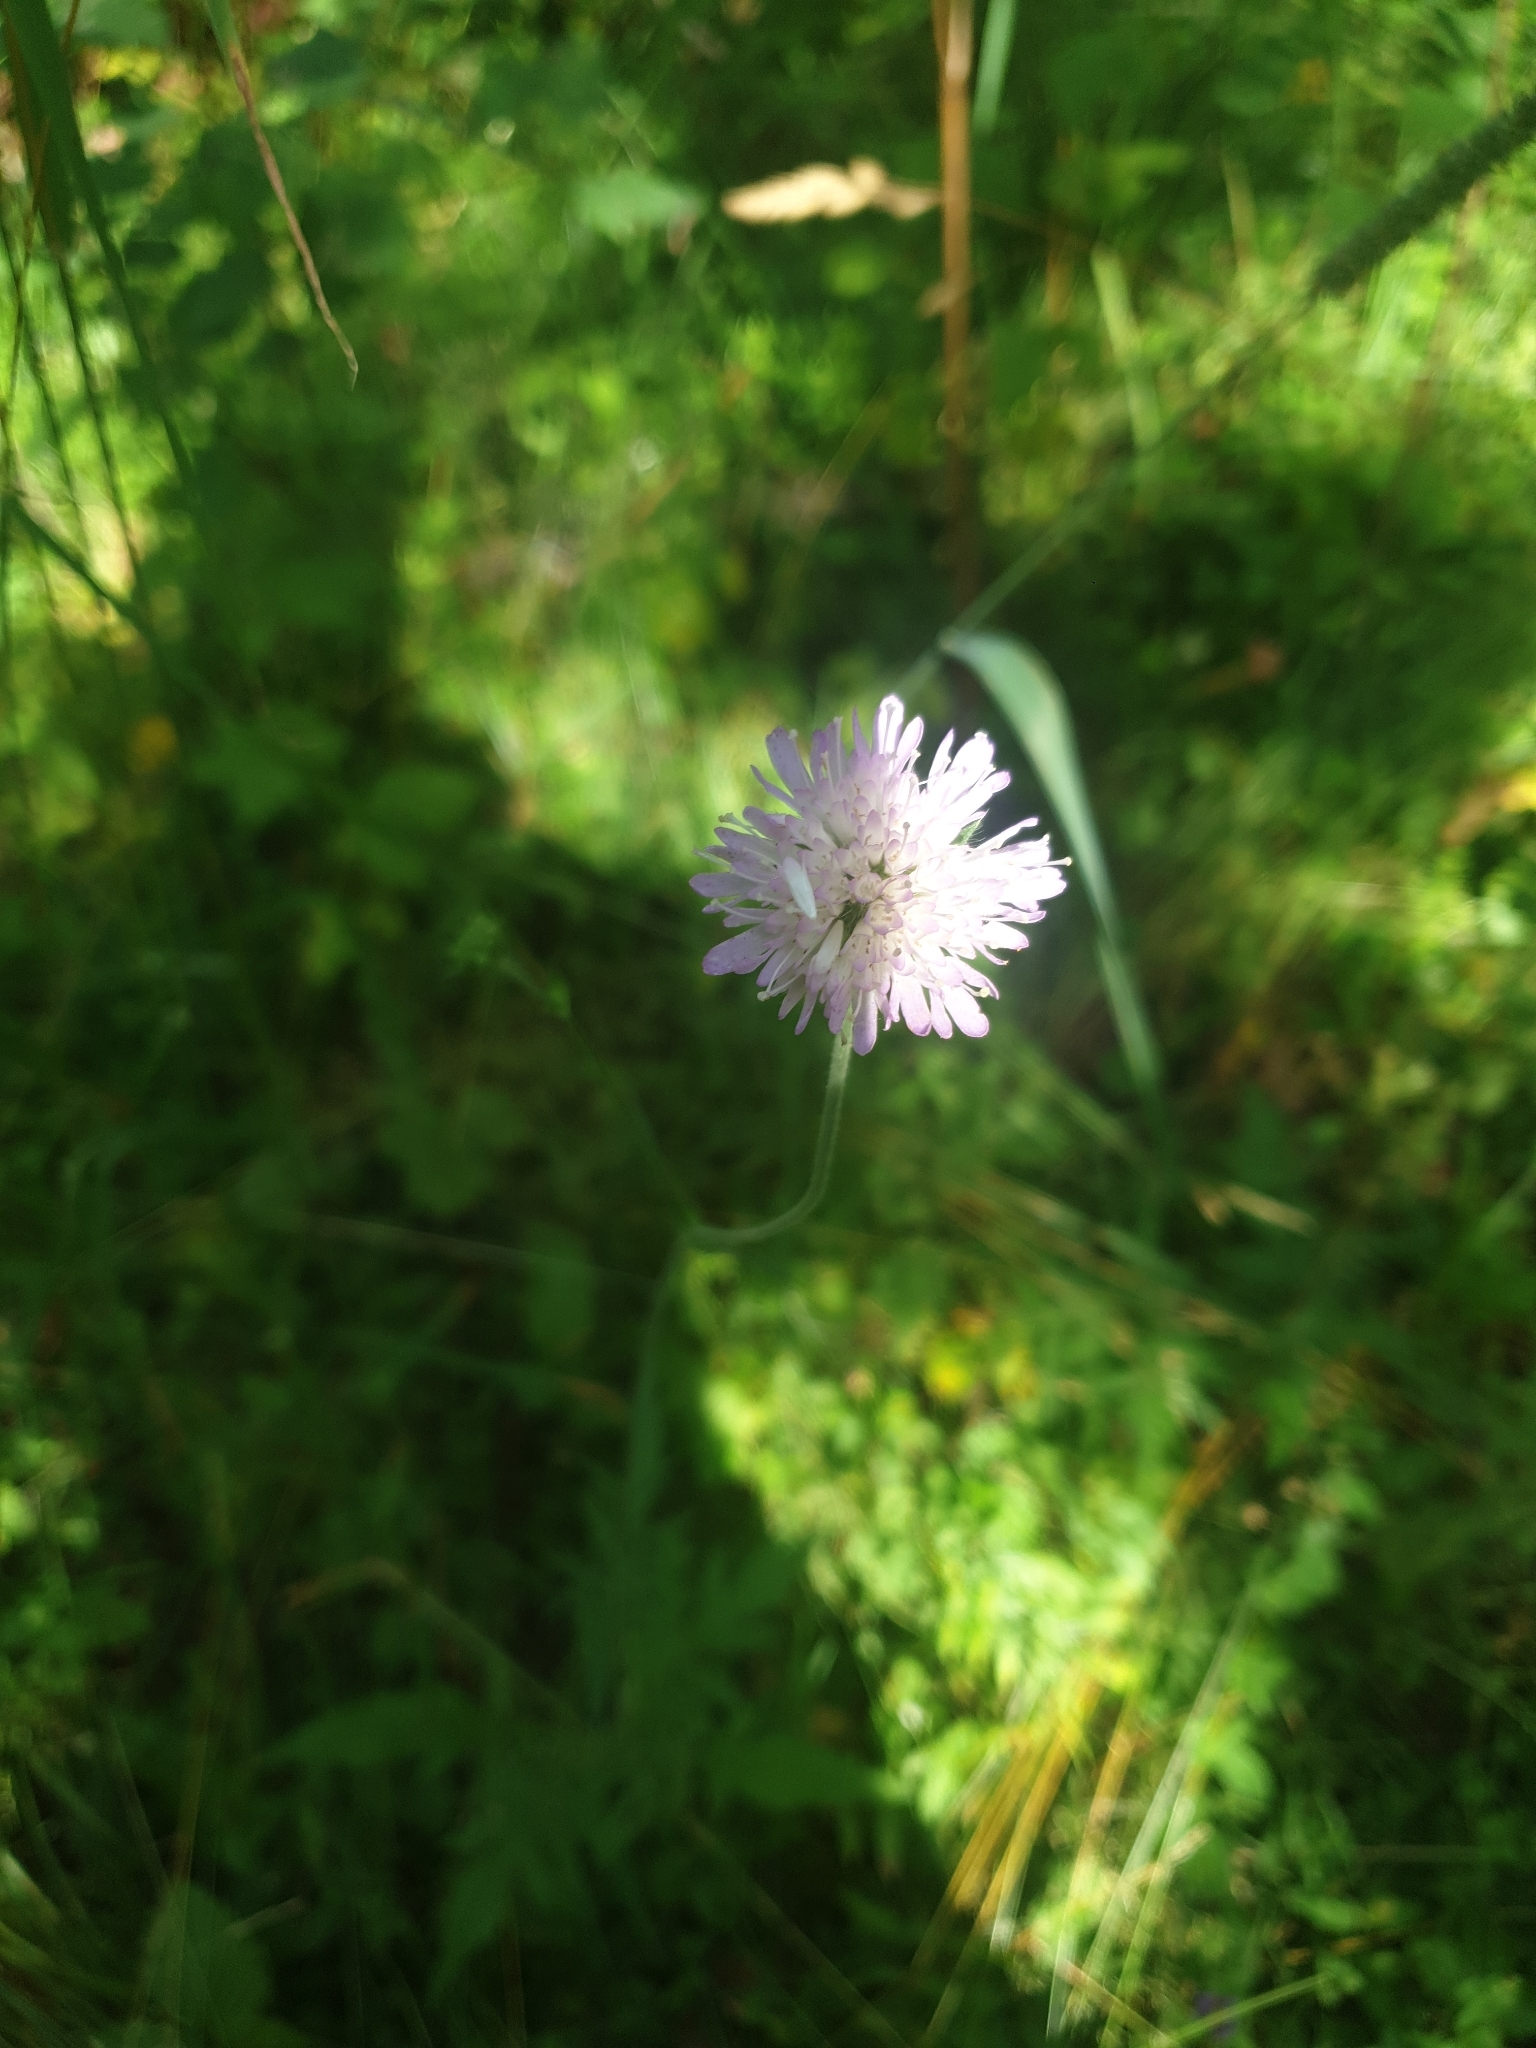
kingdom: Plantae
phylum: Tracheophyta
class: Magnoliopsida
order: Dipsacales
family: Caprifoliaceae
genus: Knautia
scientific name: Knautia arvensis
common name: Field scabiosa
